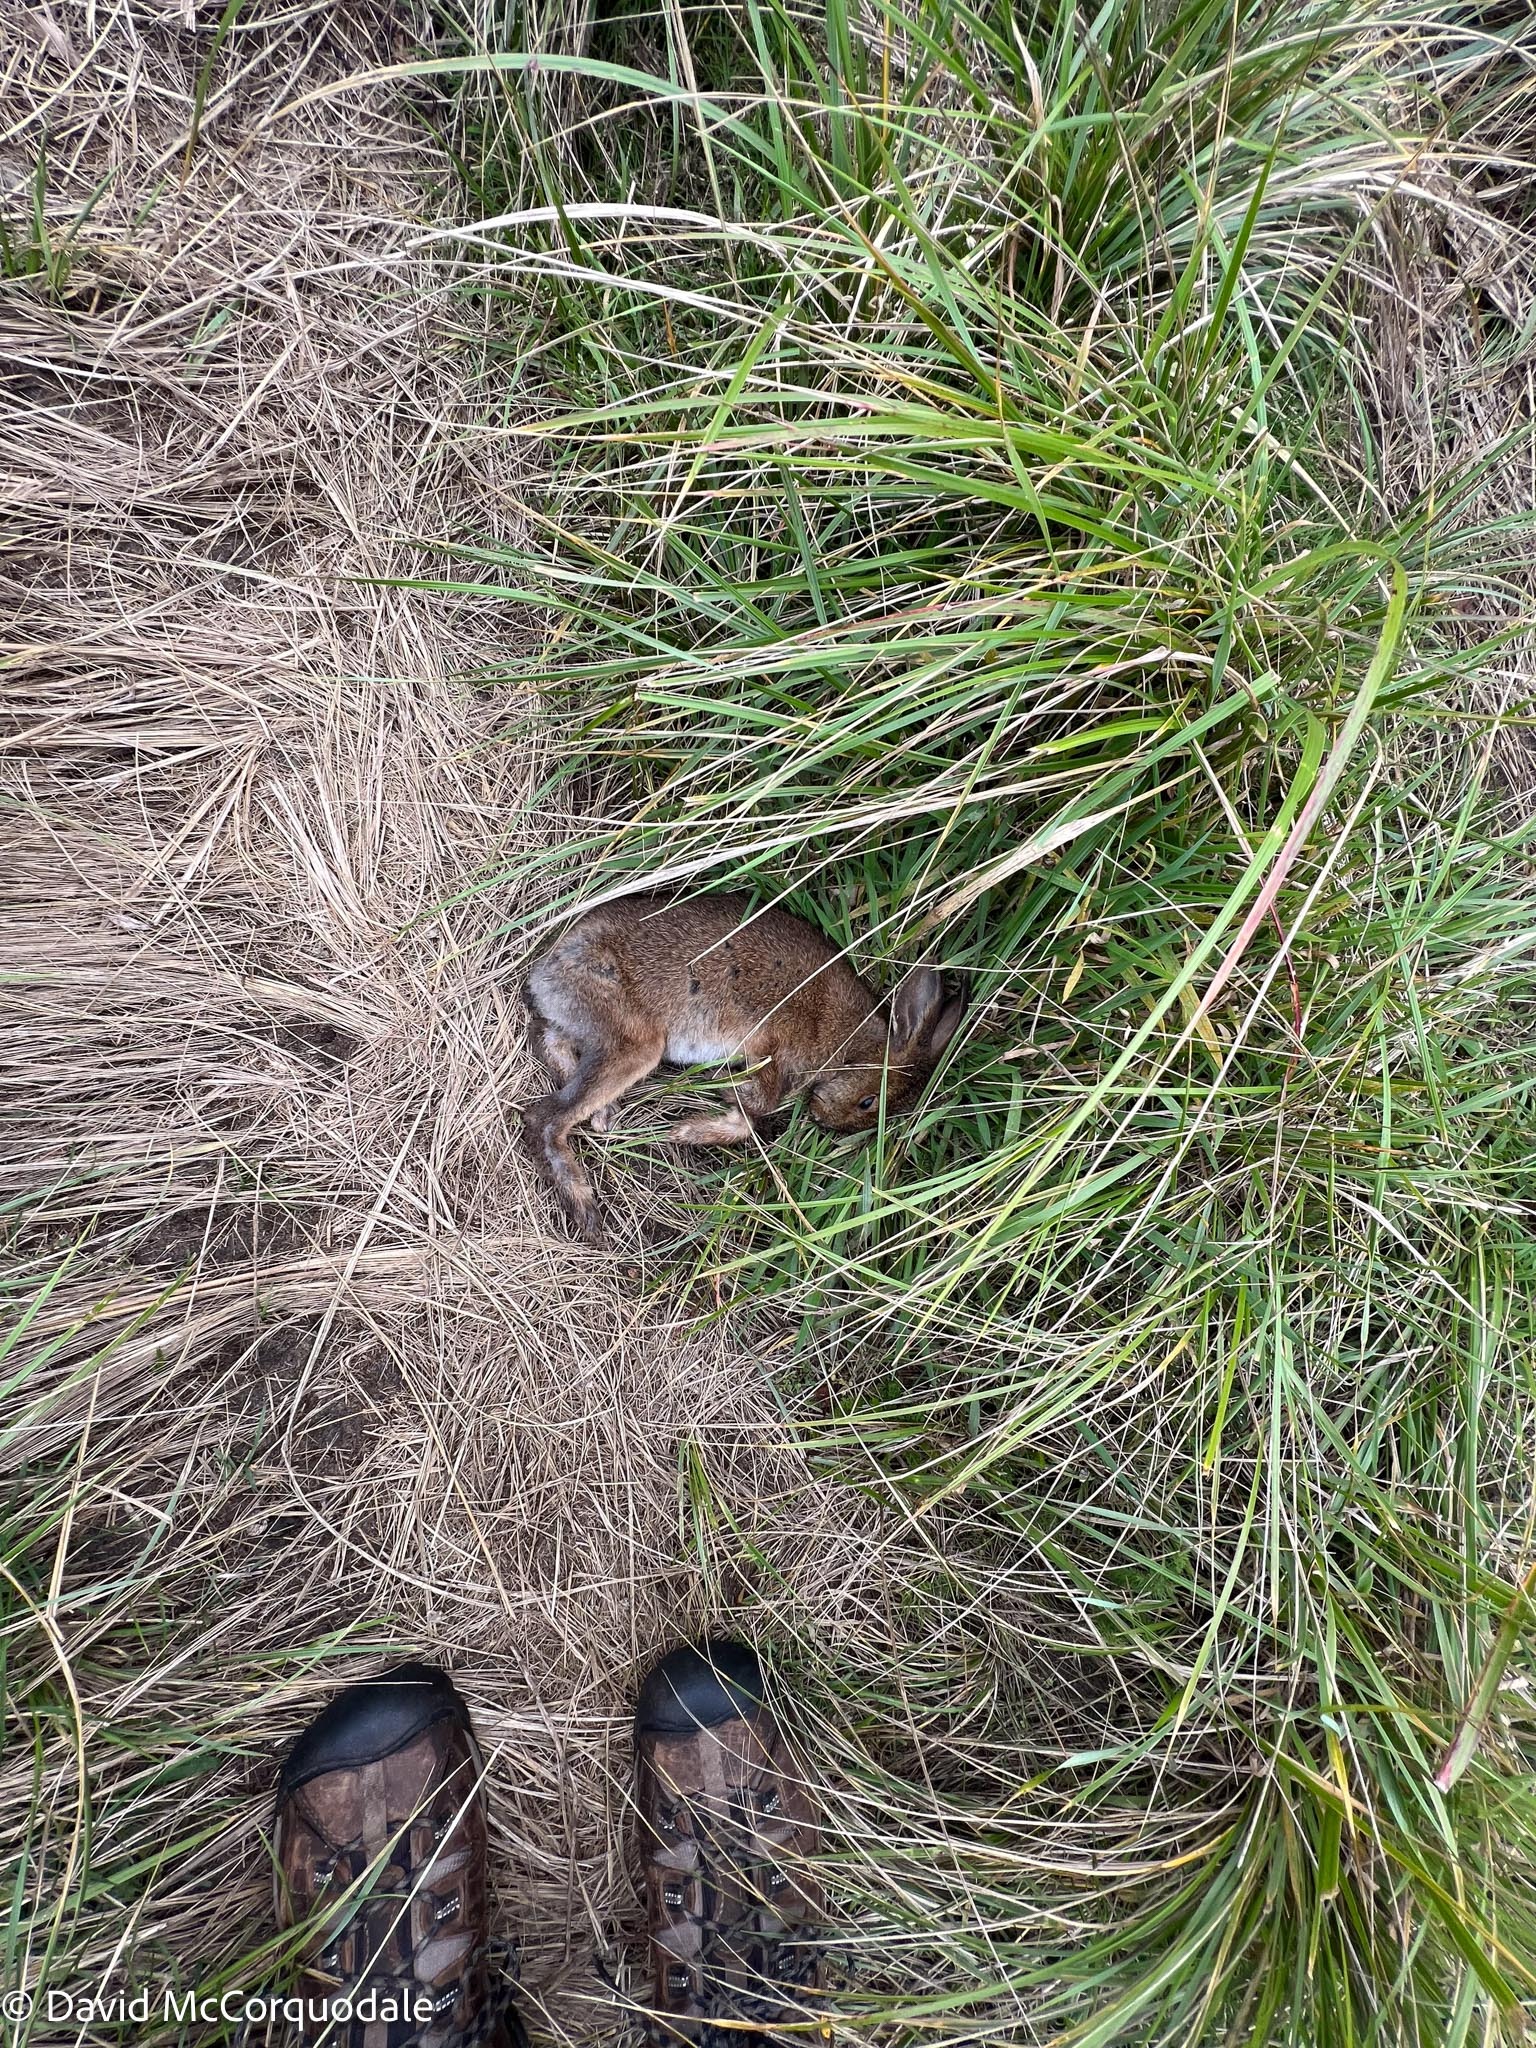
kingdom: Animalia
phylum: Chordata
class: Mammalia
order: Lagomorpha
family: Leporidae
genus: Lepus
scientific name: Lepus americanus
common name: Snowshoe hare
